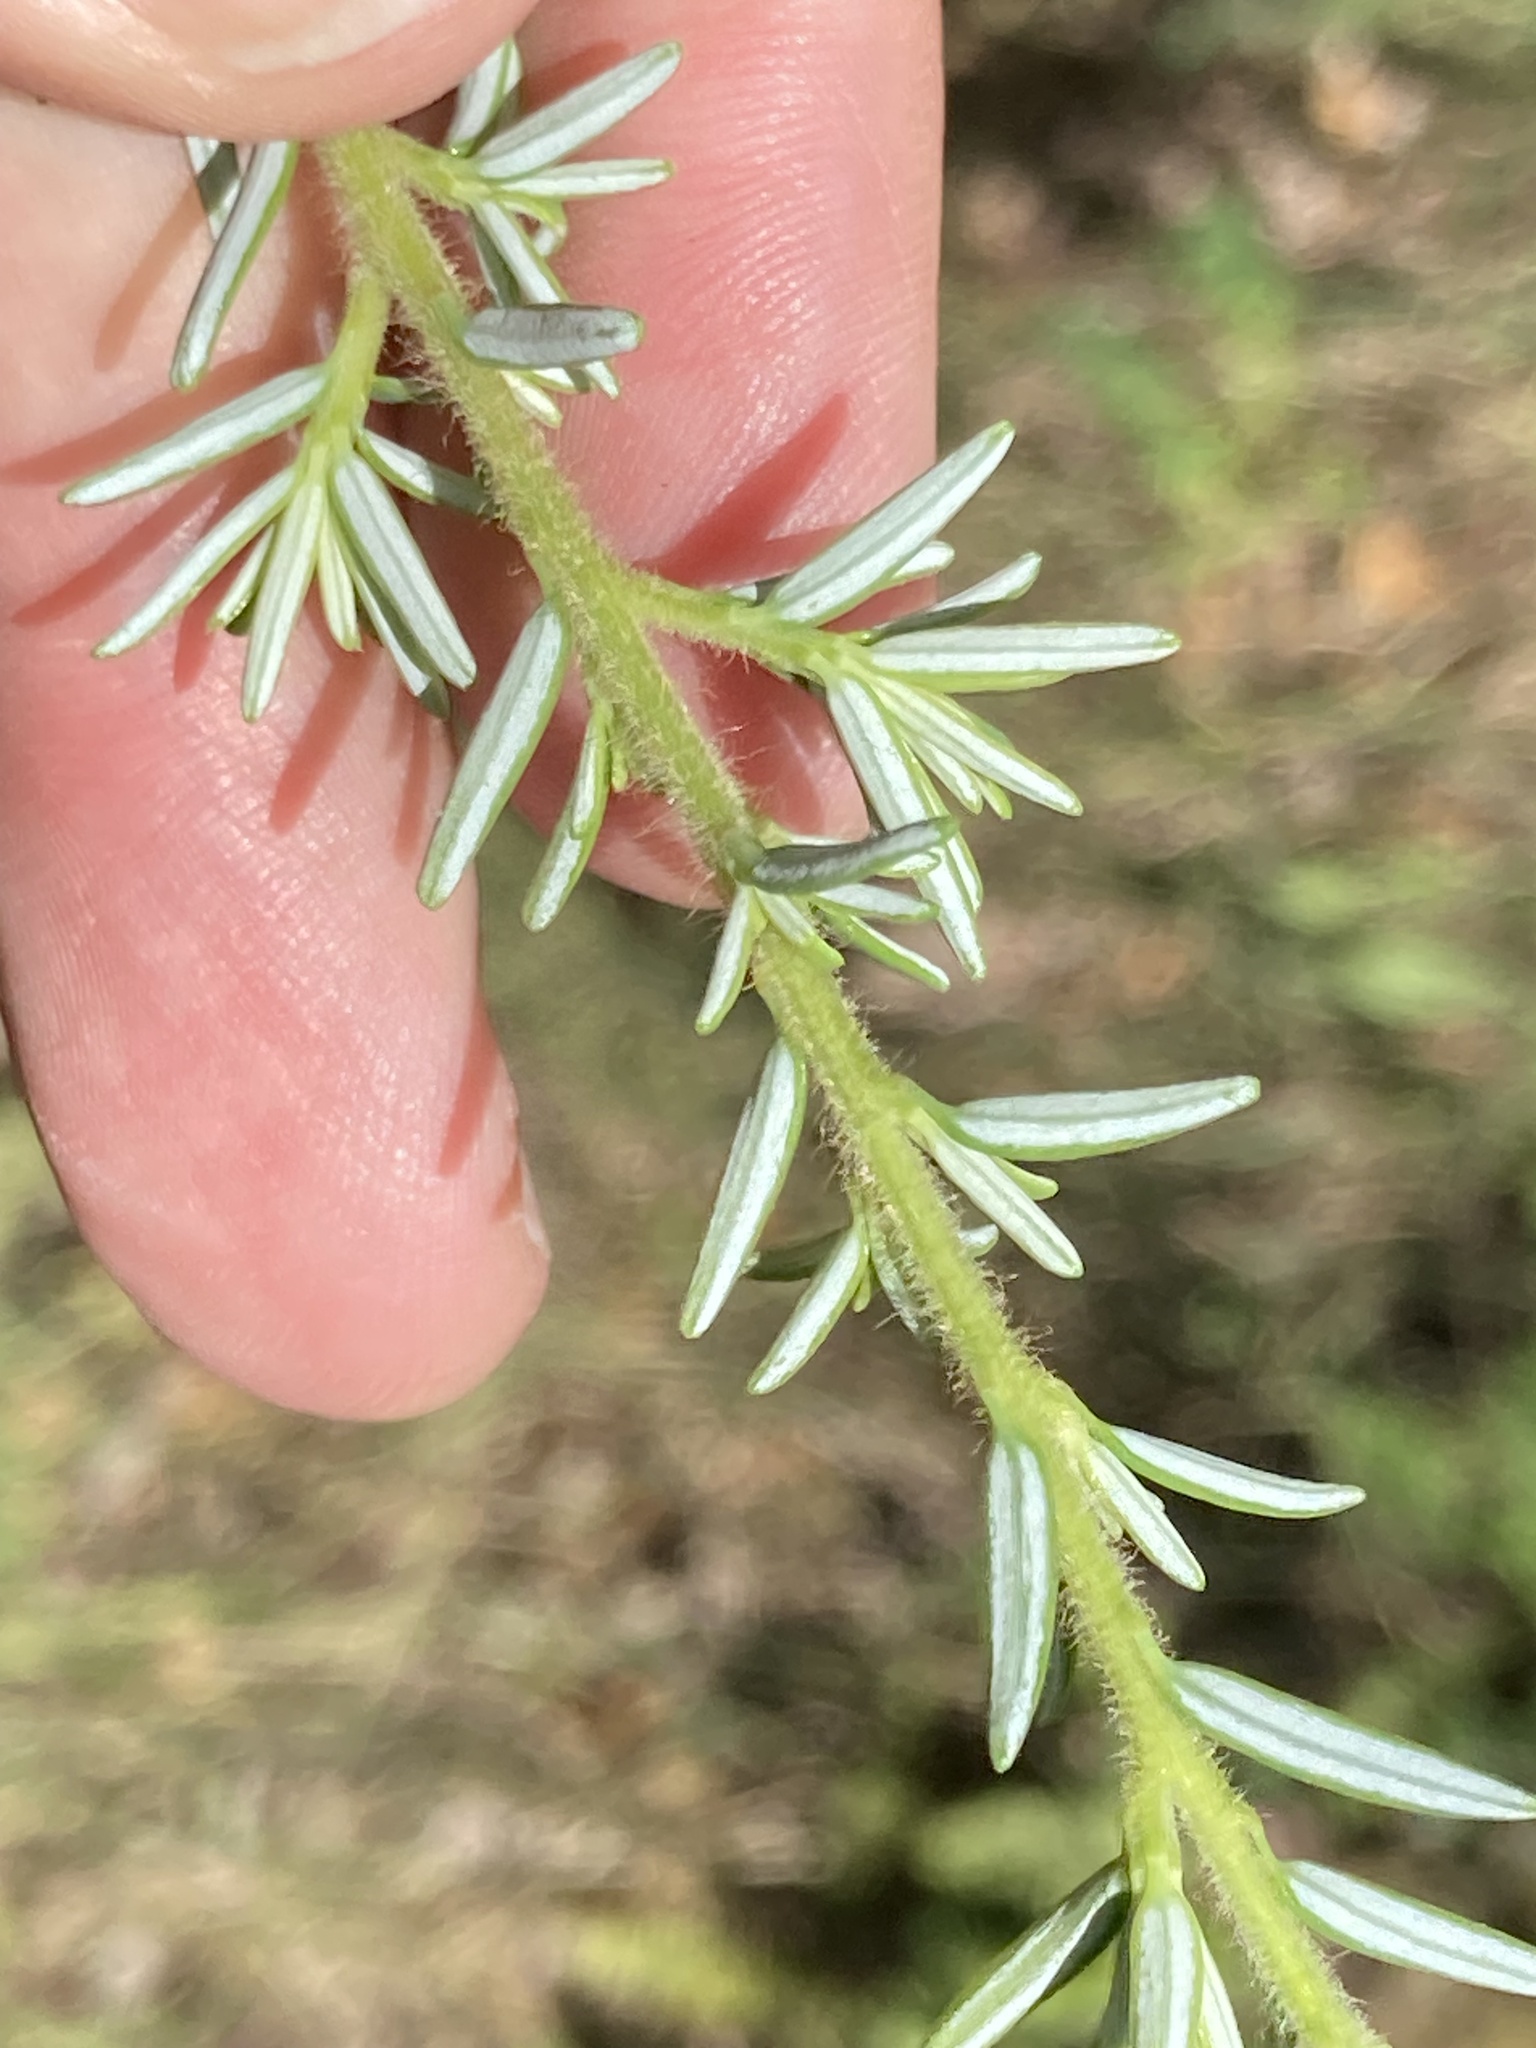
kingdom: Plantae
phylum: Tracheophyta
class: Pinopsida
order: Pinales
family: Pinaceae
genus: Tsuga
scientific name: Tsuga heterophylla
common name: Western hemlock
